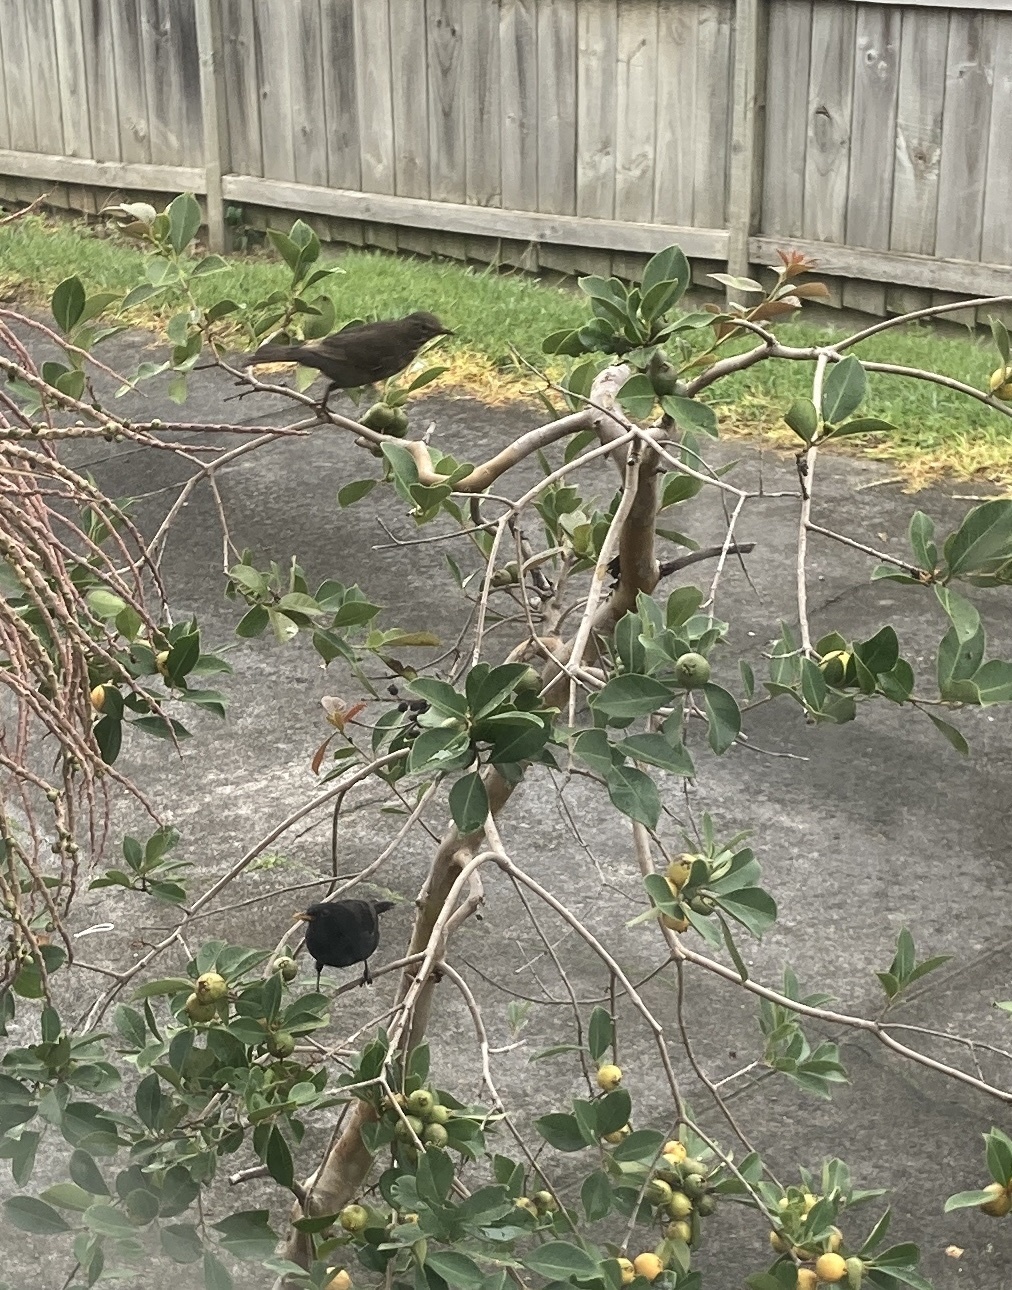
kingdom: Animalia
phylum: Chordata
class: Aves
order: Passeriformes
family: Turdidae
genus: Turdus
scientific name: Turdus merula
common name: Common blackbird
